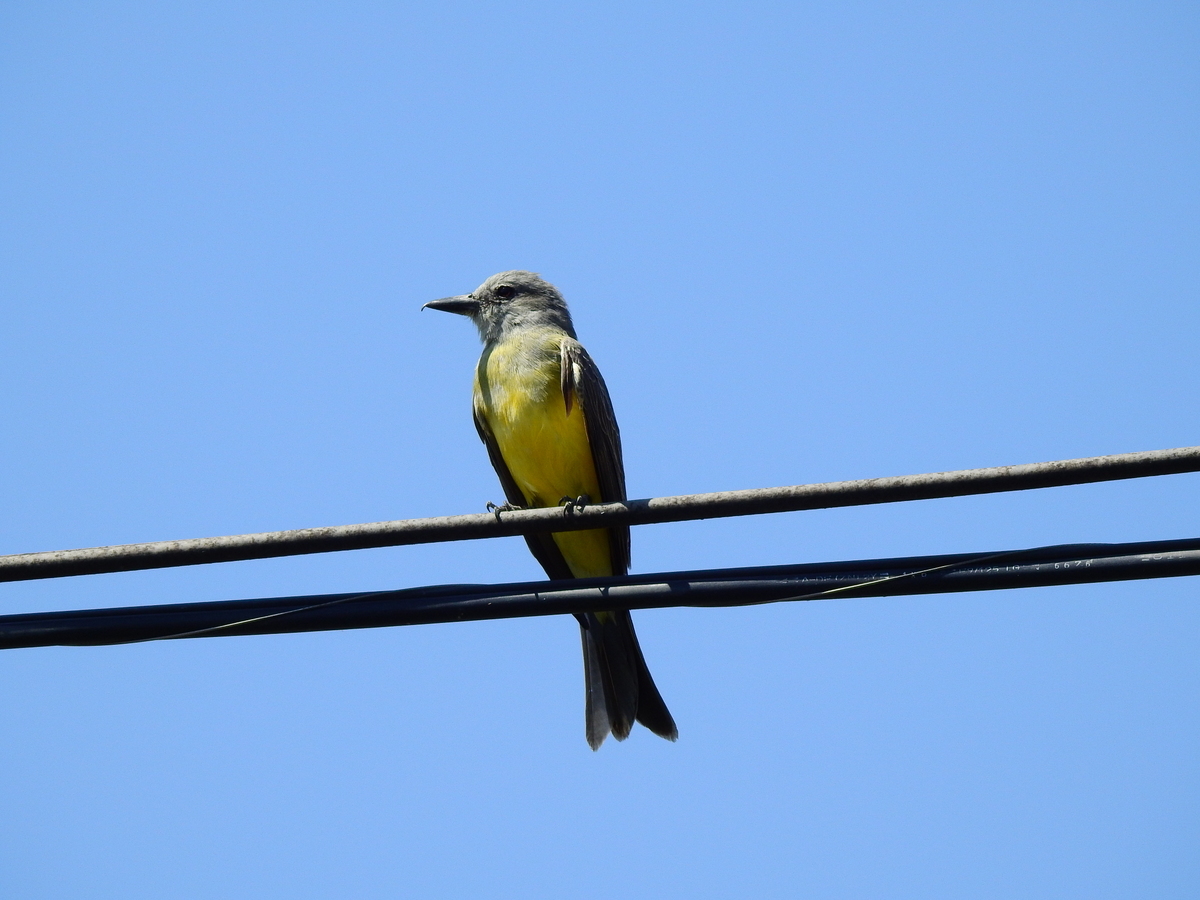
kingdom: Animalia
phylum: Chordata
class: Aves
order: Passeriformes
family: Tyrannidae
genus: Tyrannus
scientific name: Tyrannus melancholicus
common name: Tropical kingbird
